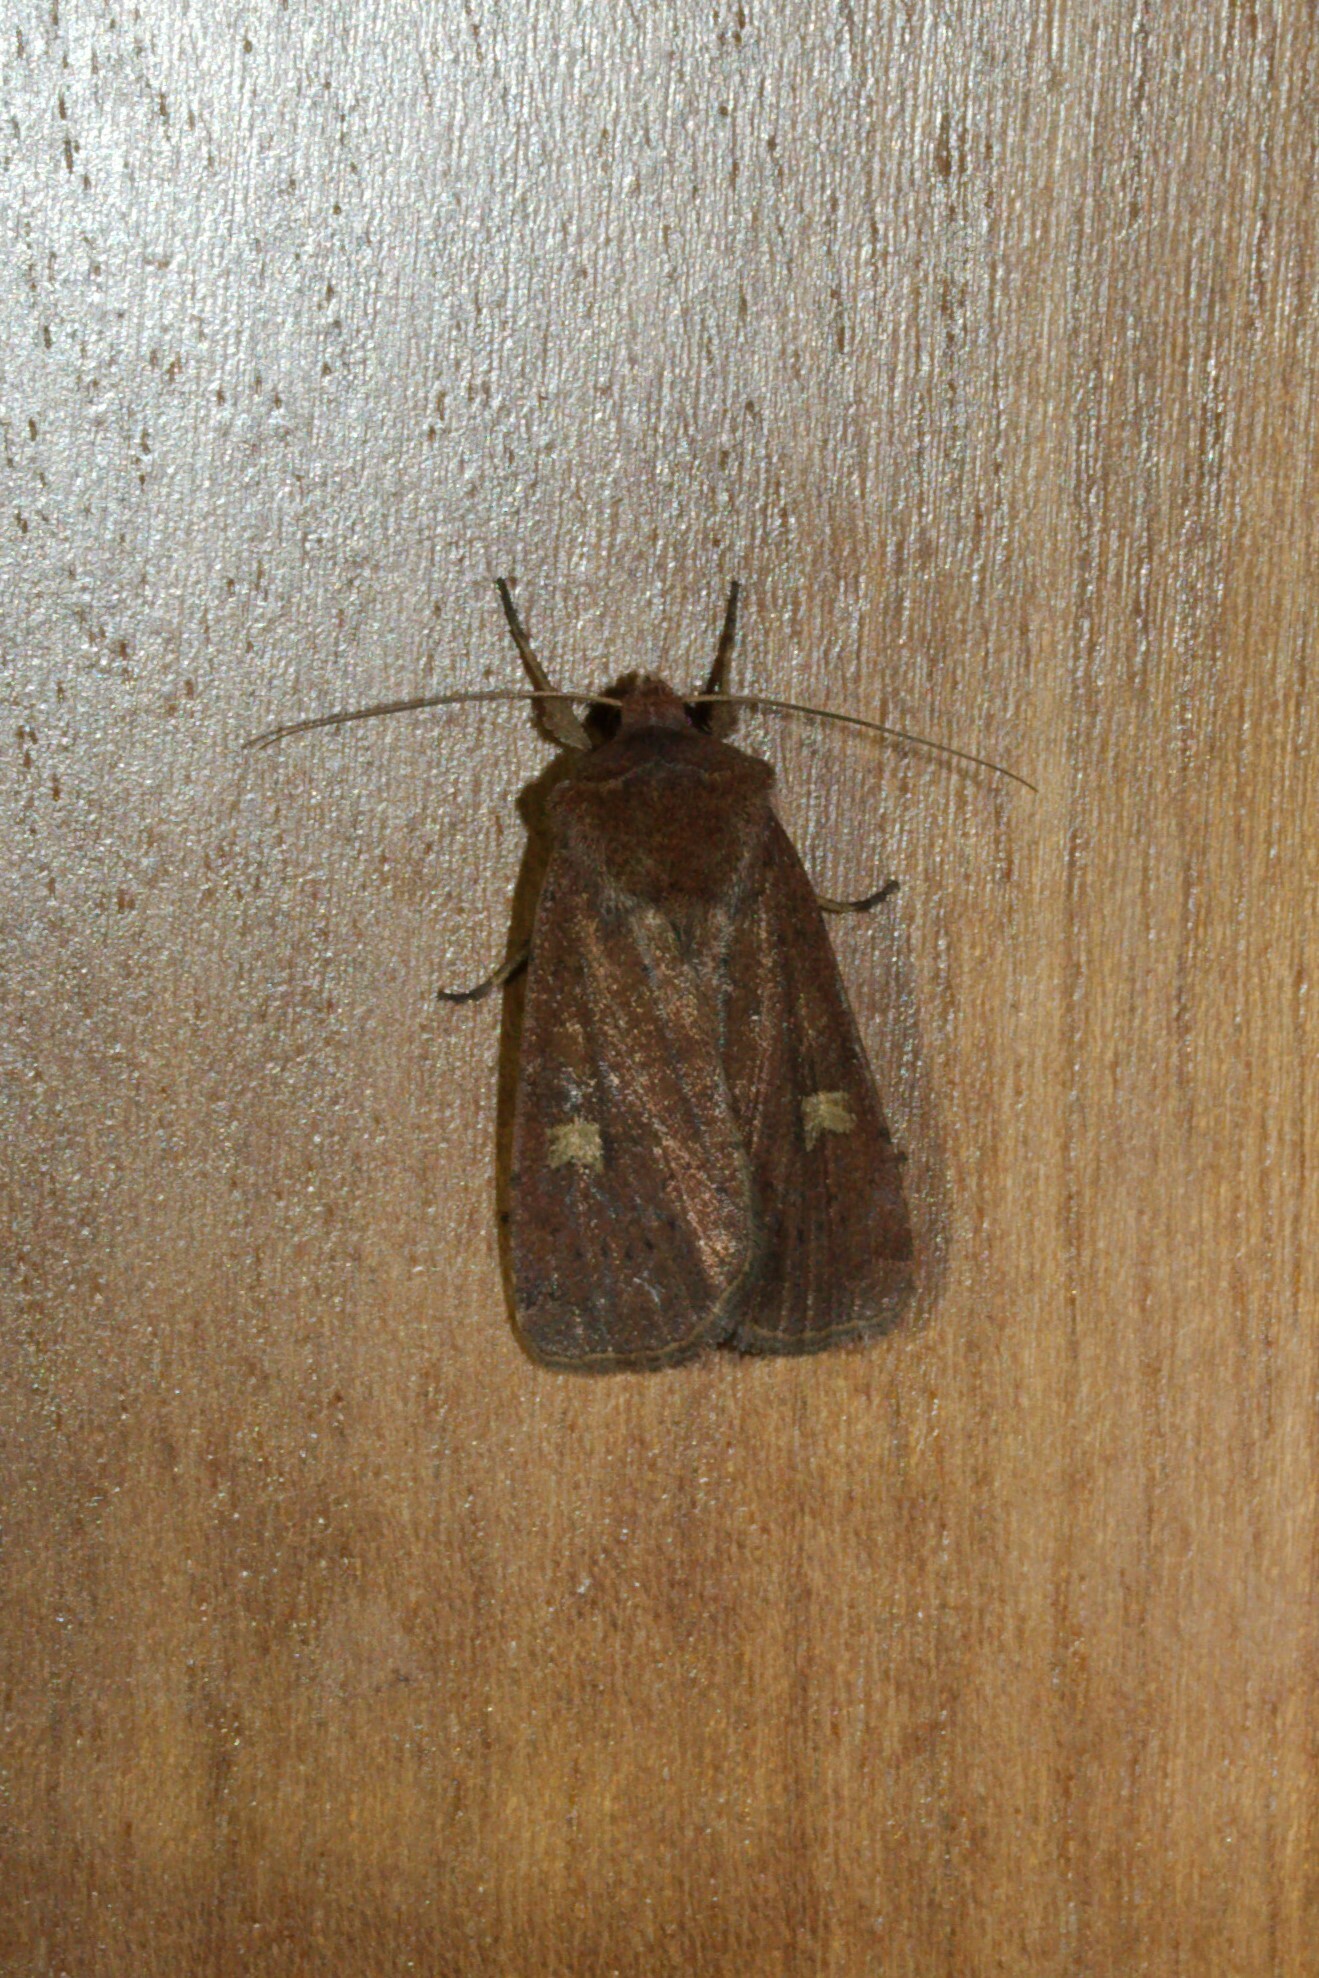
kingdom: Animalia
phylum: Arthropoda
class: Insecta
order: Lepidoptera
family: Noctuidae
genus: Xestia
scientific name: Xestia xanthographa
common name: Square-spot rustic
